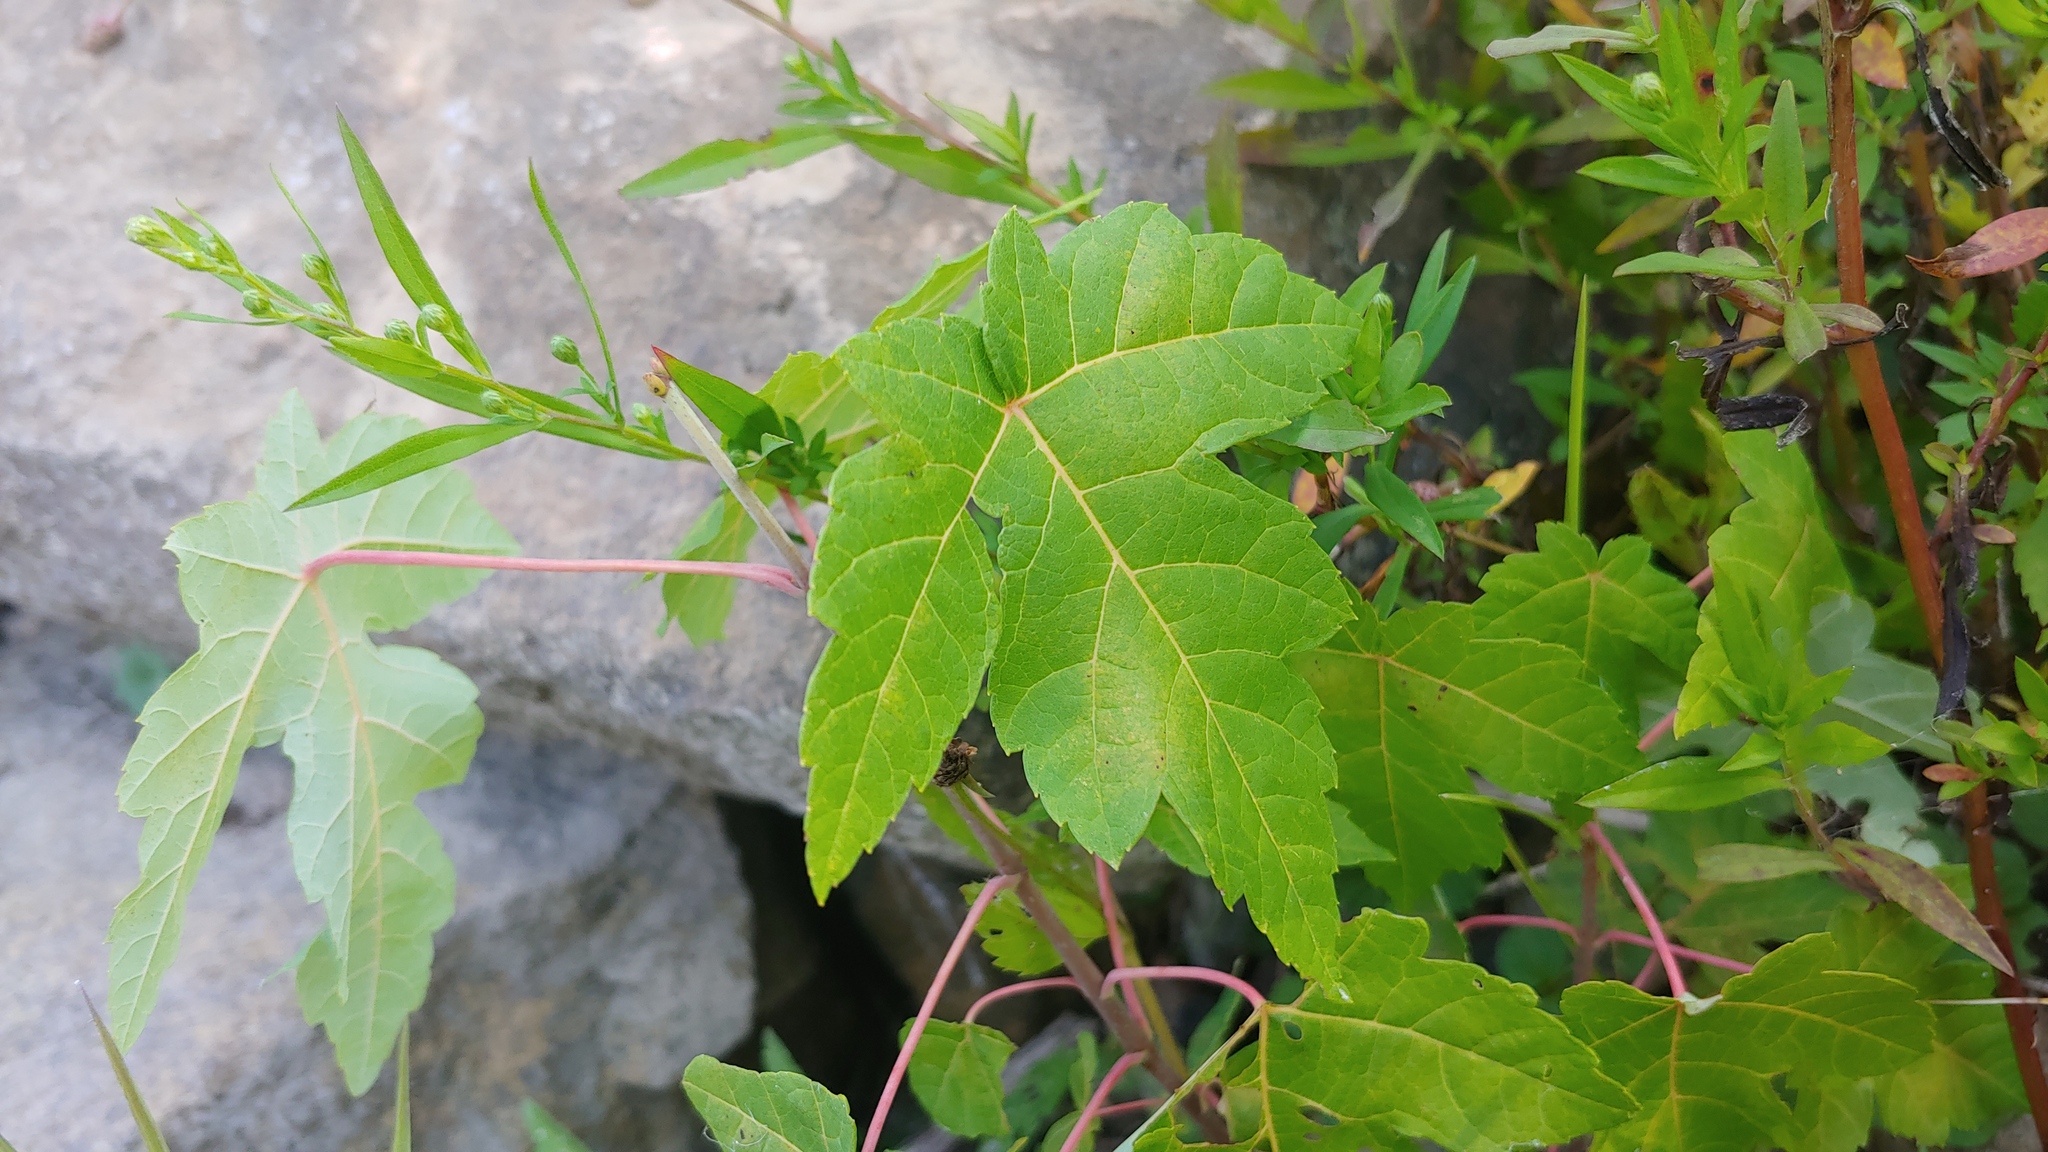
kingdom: Plantae
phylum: Tracheophyta
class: Magnoliopsida
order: Sapindales
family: Sapindaceae
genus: Acer
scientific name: Acer saccharinum
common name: Silver maple
